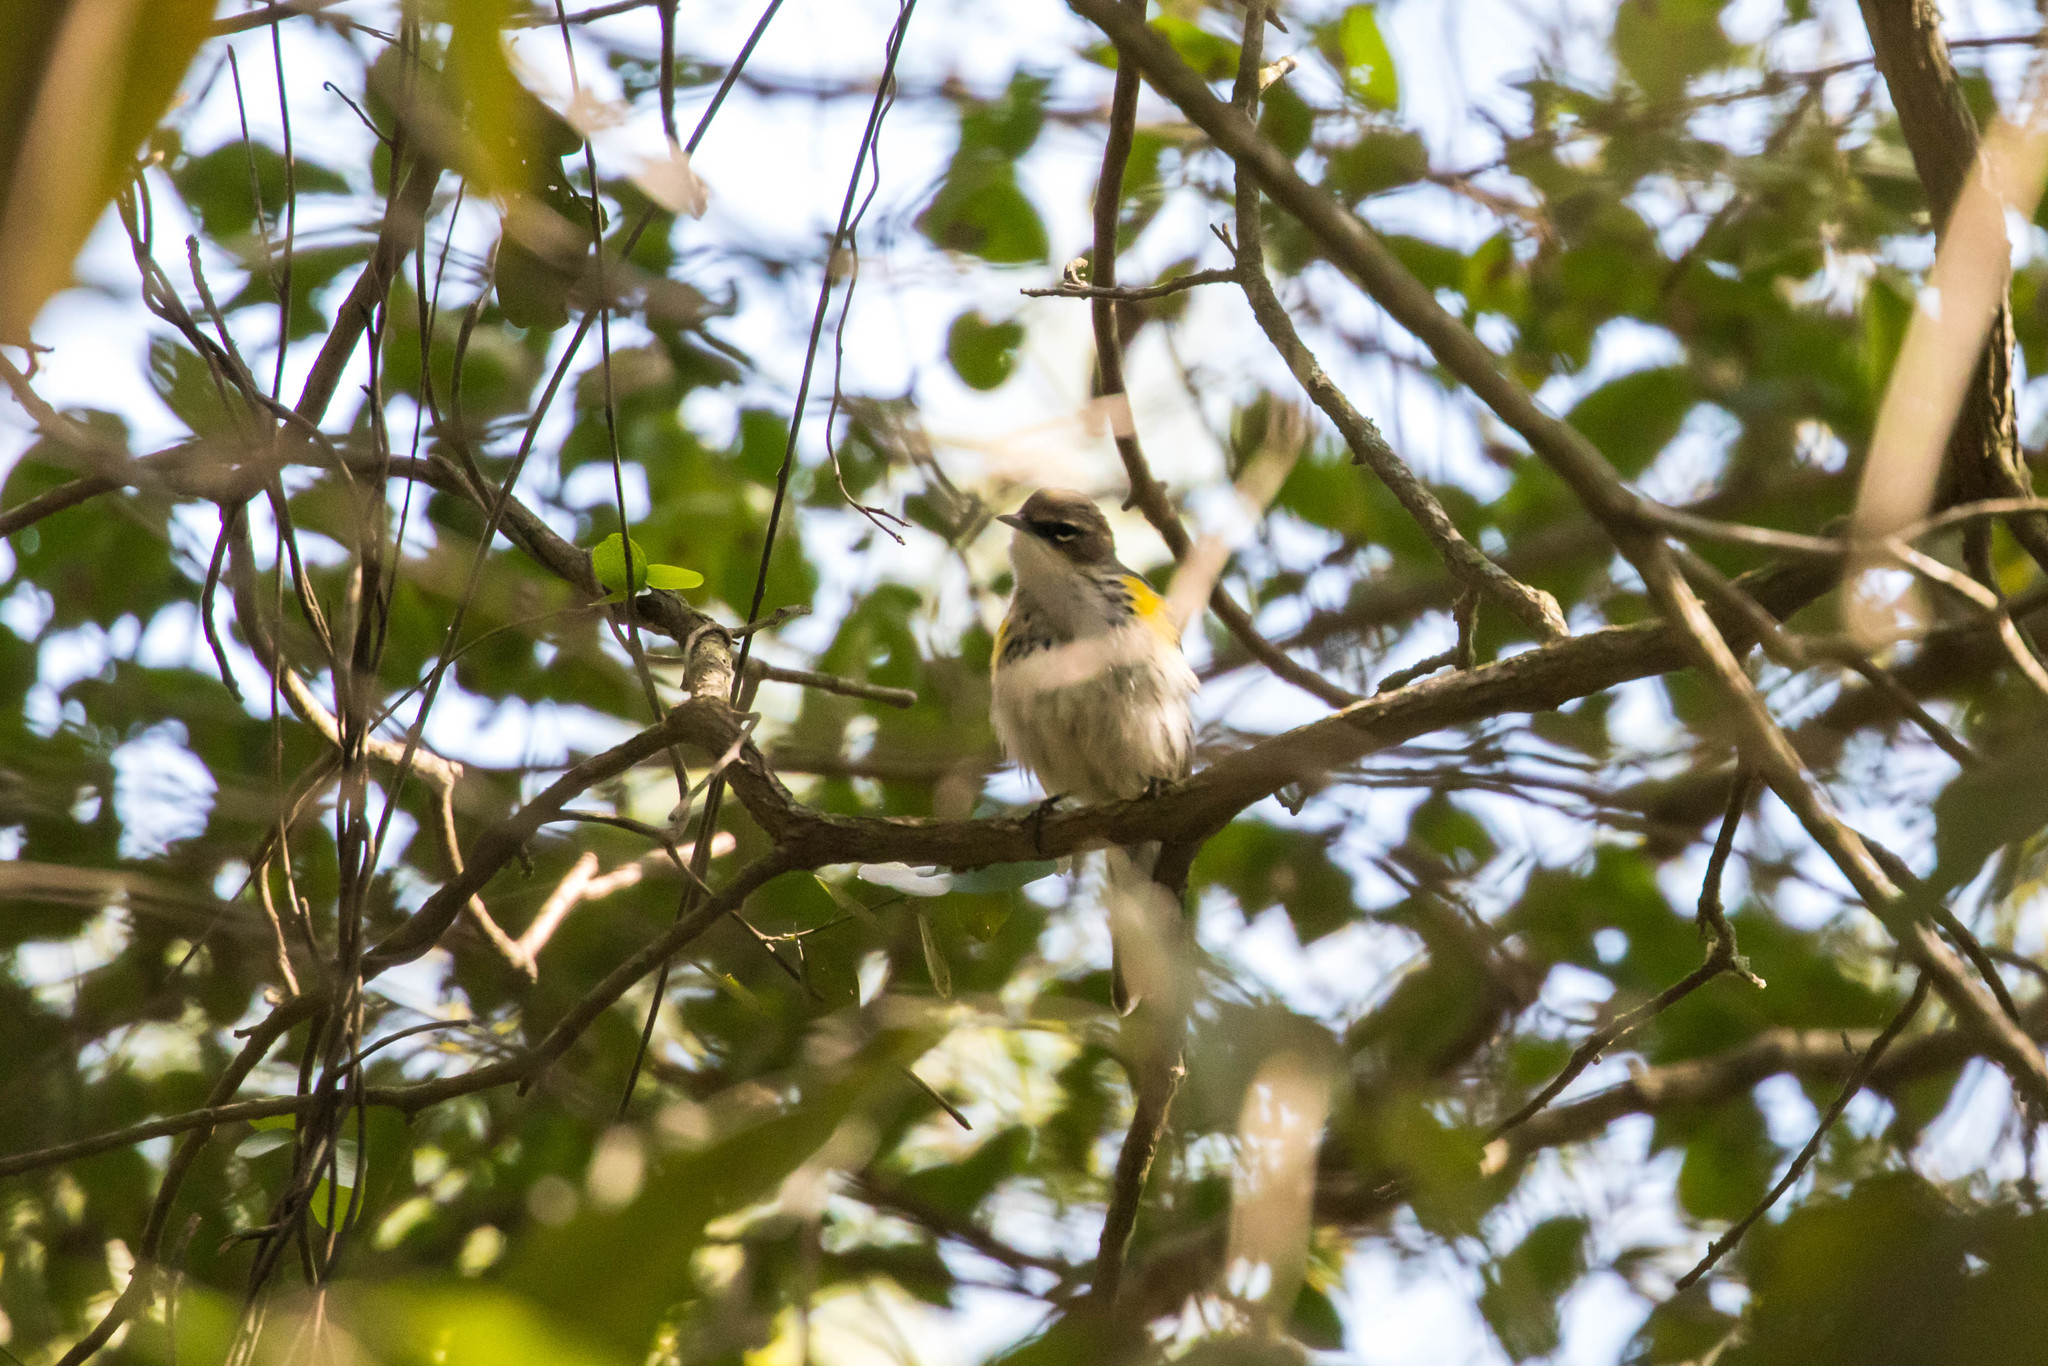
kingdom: Animalia
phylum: Chordata
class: Aves
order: Passeriformes
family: Parulidae
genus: Setophaga
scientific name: Setophaga coronata
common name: Myrtle warbler
